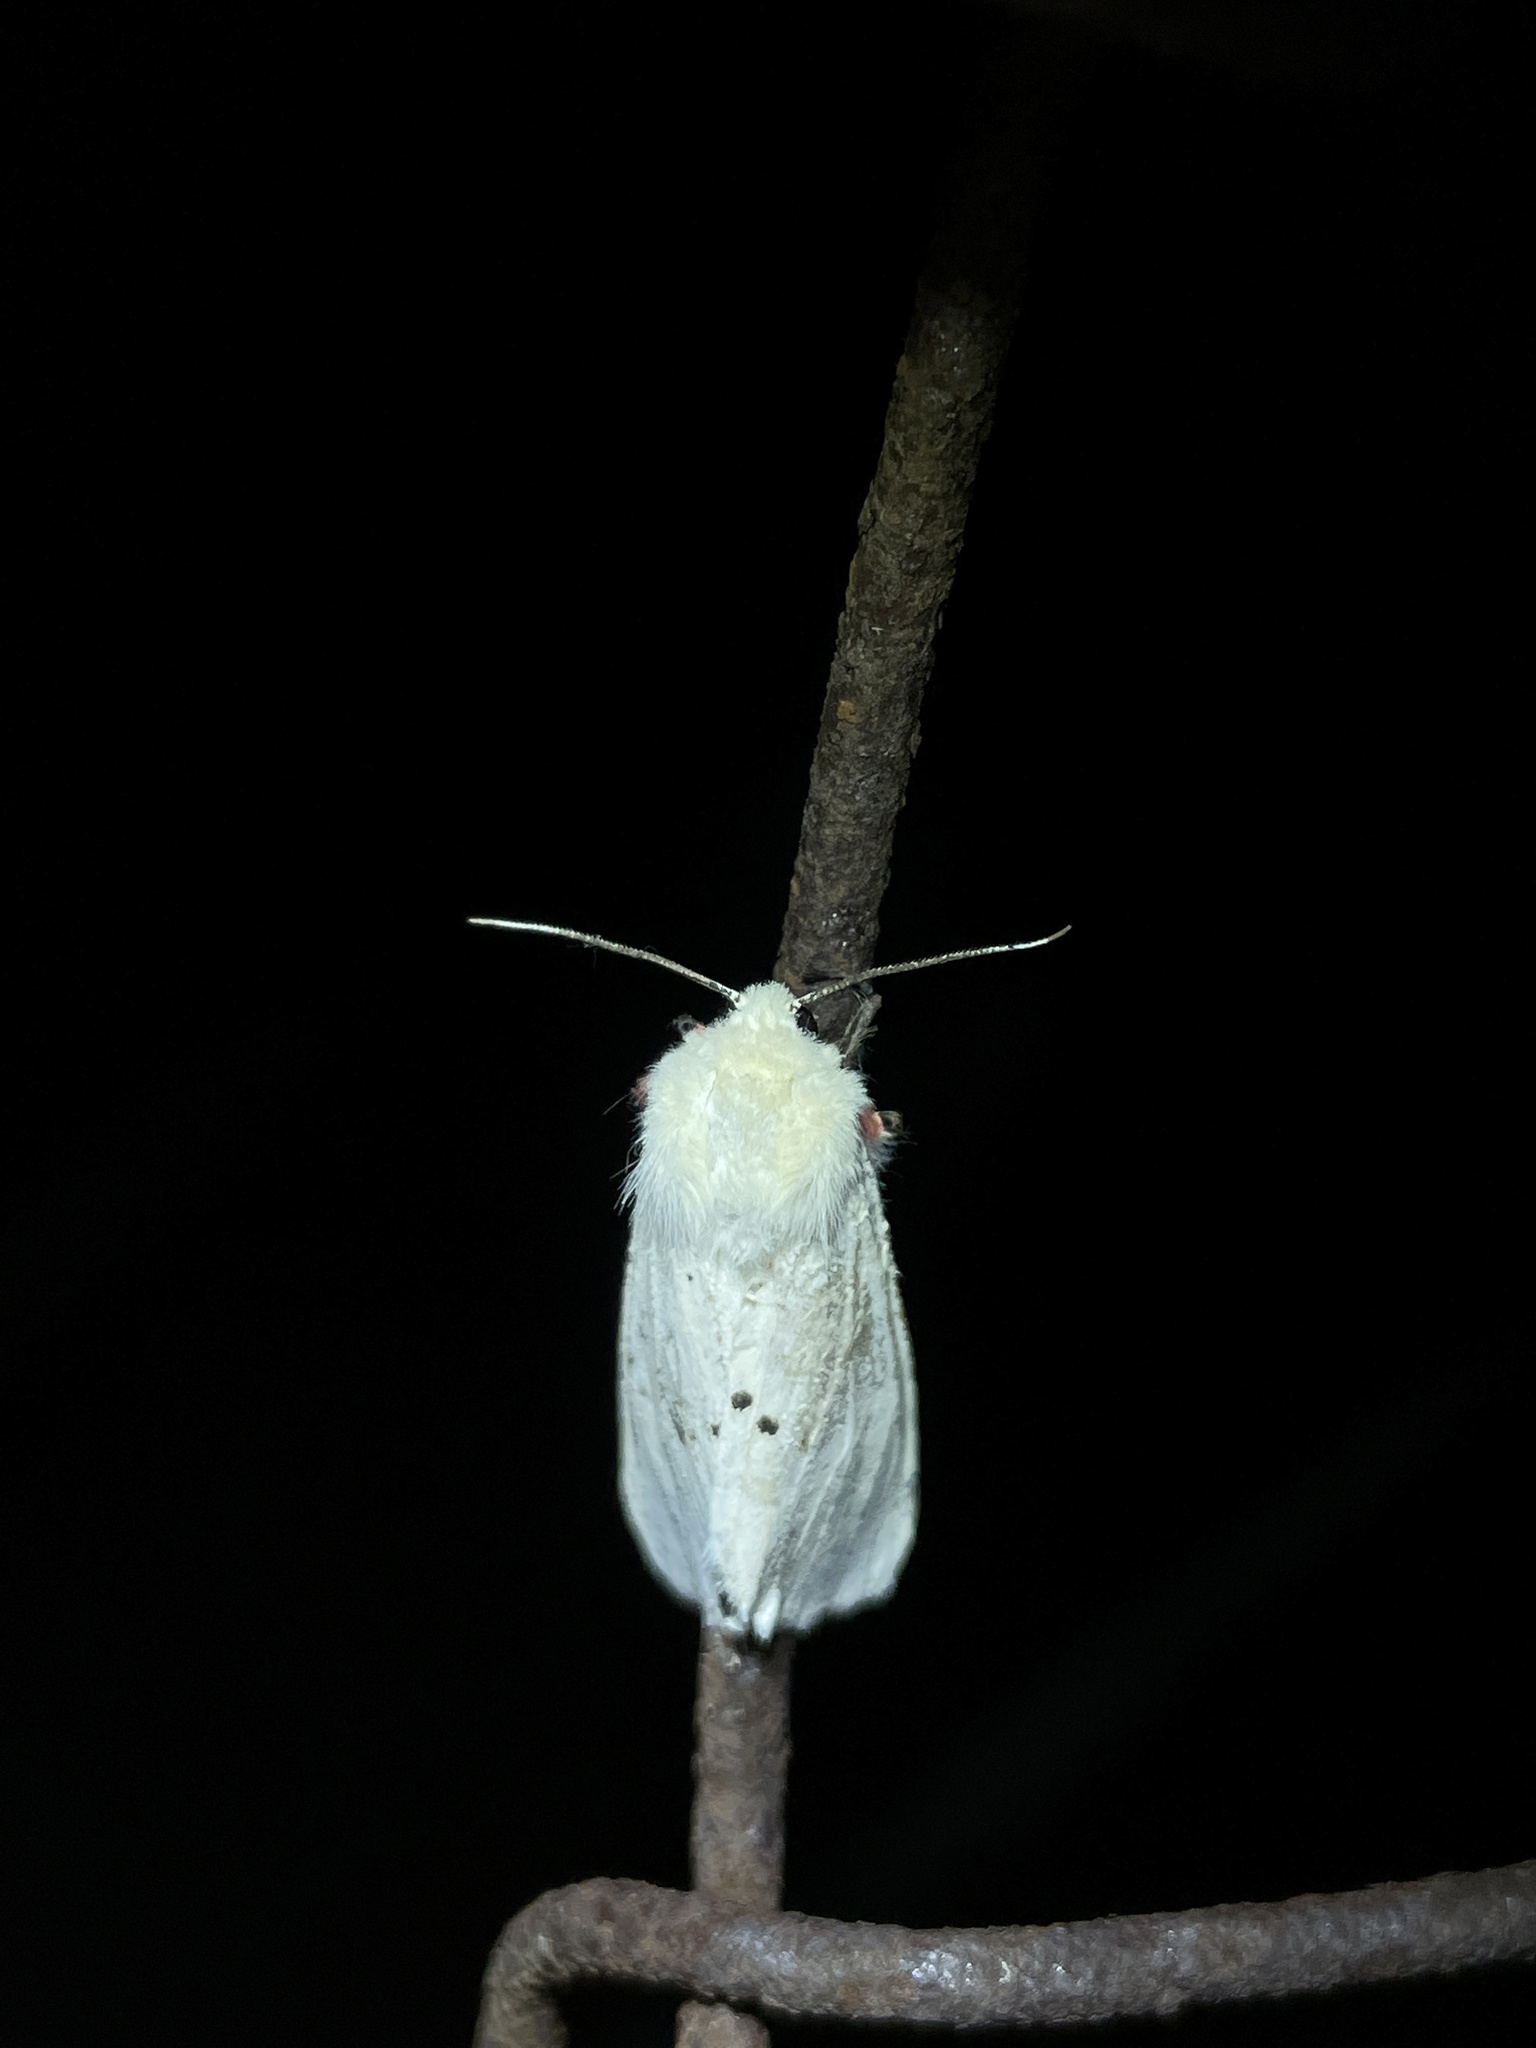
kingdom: Animalia
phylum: Arthropoda
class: Insecta
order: Lepidoptera
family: Erebidae
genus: Spilarctia
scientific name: Spilarctia subcarnea
